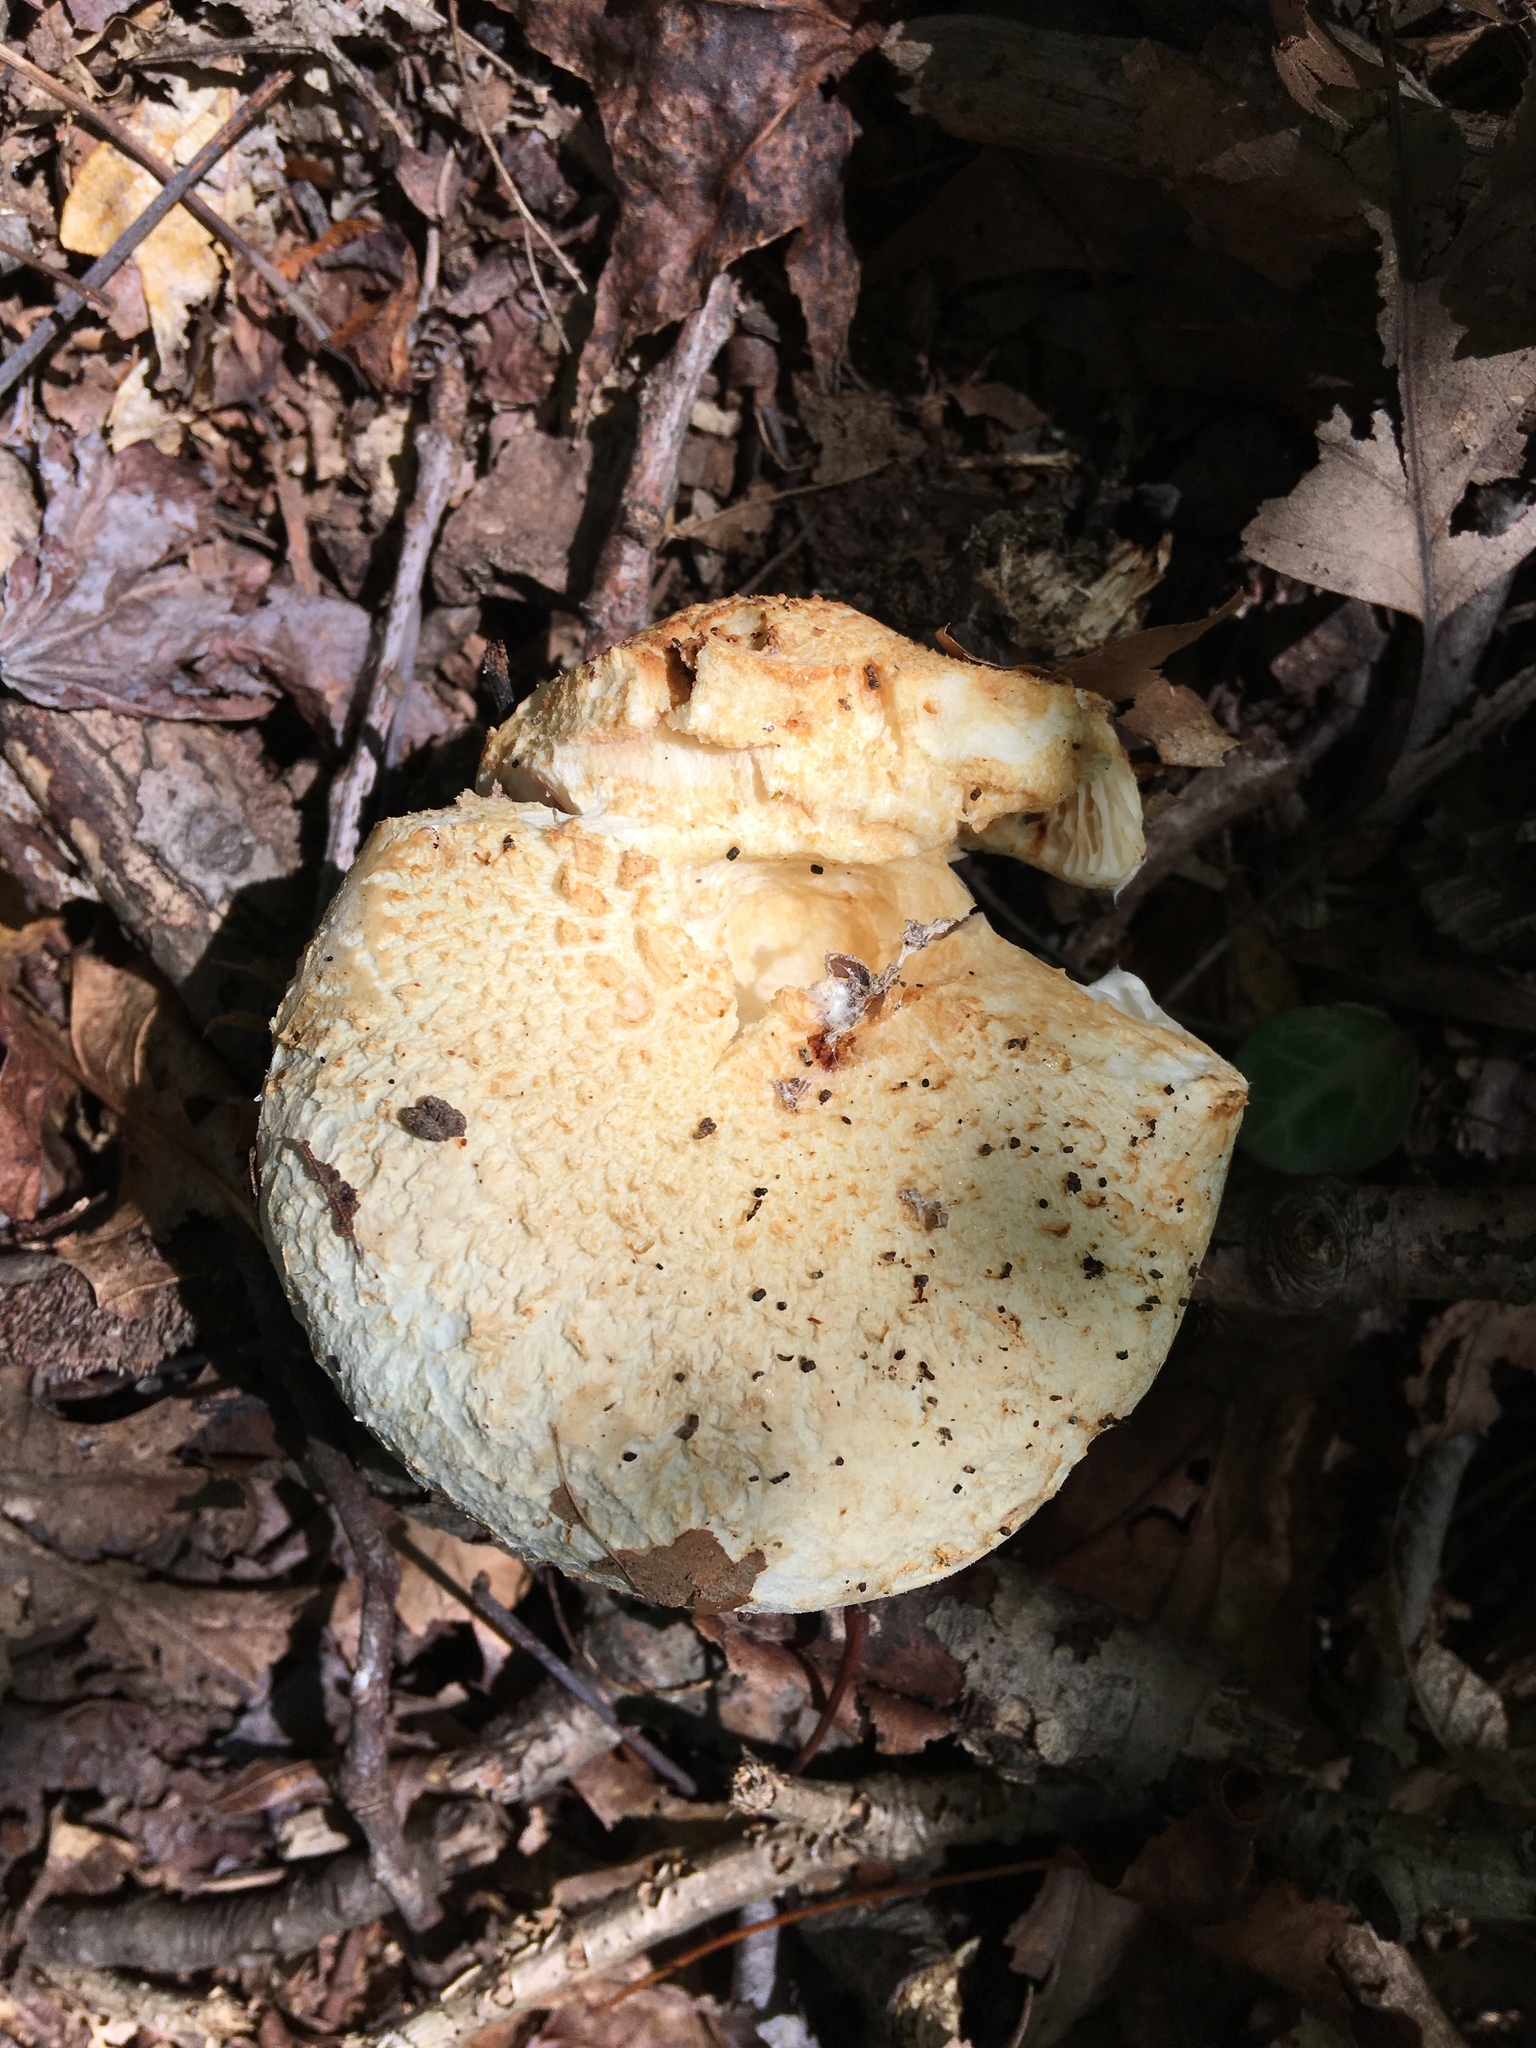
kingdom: Fungi
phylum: Basidiomycota
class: Agaricomycetes
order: Russulales
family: Russulaceae
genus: Lactifluus
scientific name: Lactifluus
